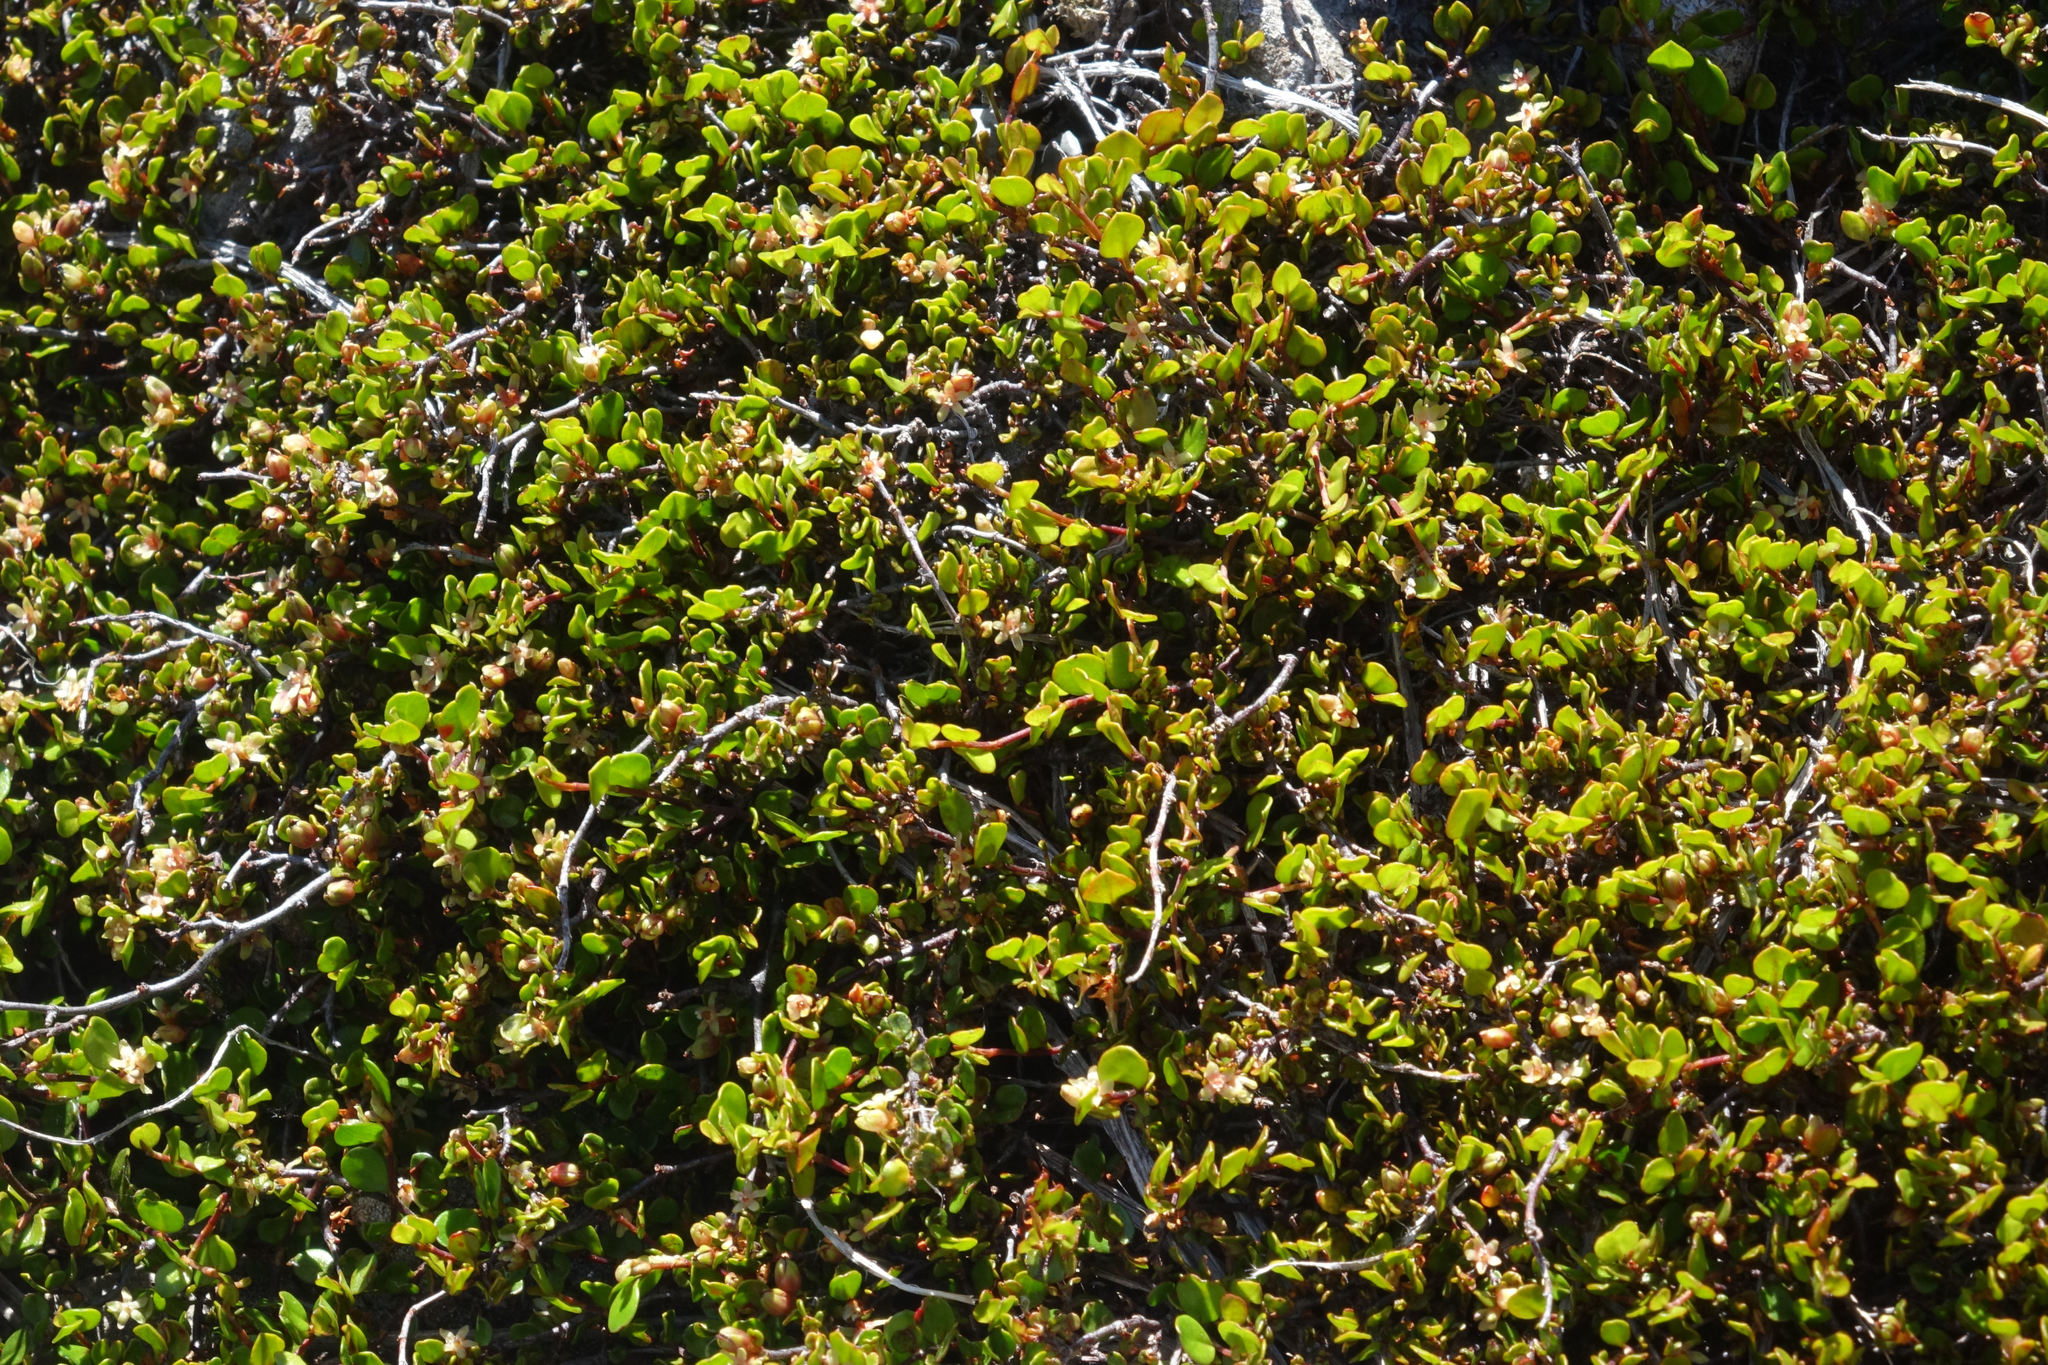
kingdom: Plantae
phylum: Tracheophyta
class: Magnoliopsida
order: Caryophyllales
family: Polygonaceae
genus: Muehlenbeckia
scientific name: Muehlenbeckia axillaris
